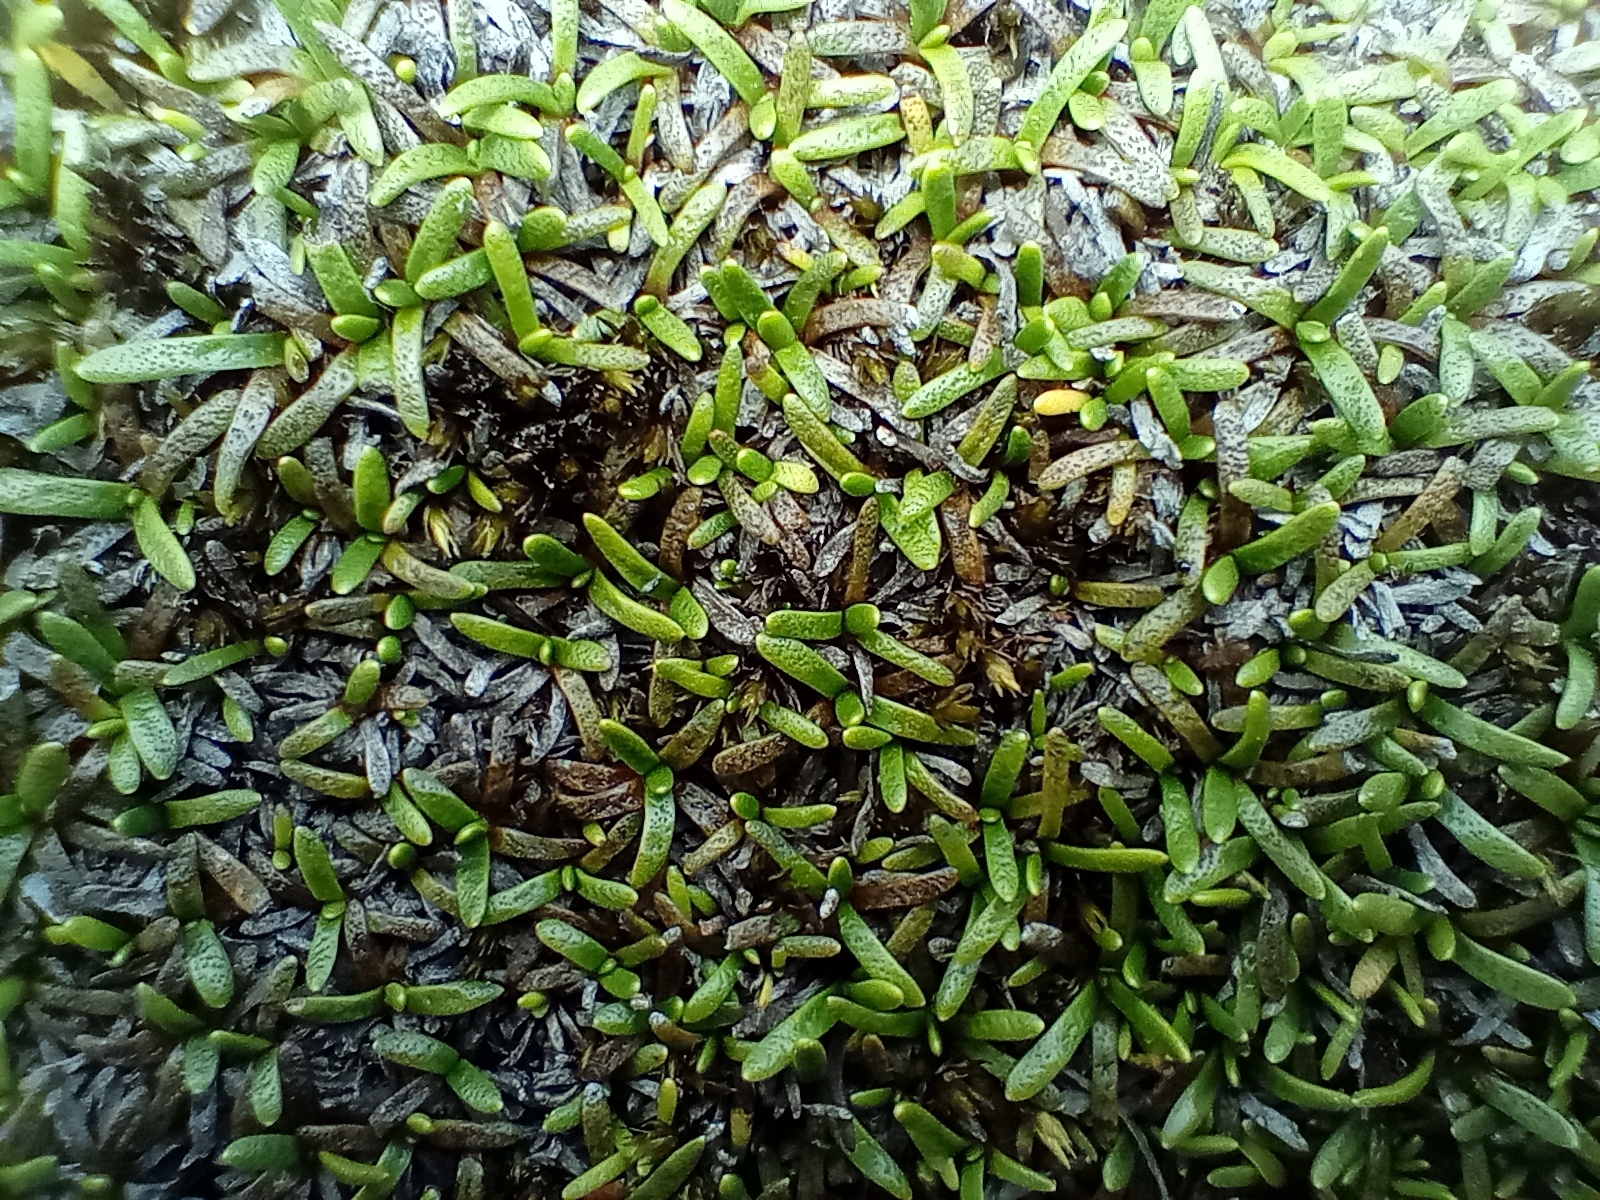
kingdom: Plantae
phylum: Tracheophyta
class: Magnoliopsida
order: Asterales
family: Asteraceae
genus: Abrotanella
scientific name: Abrotanella caespitosa
